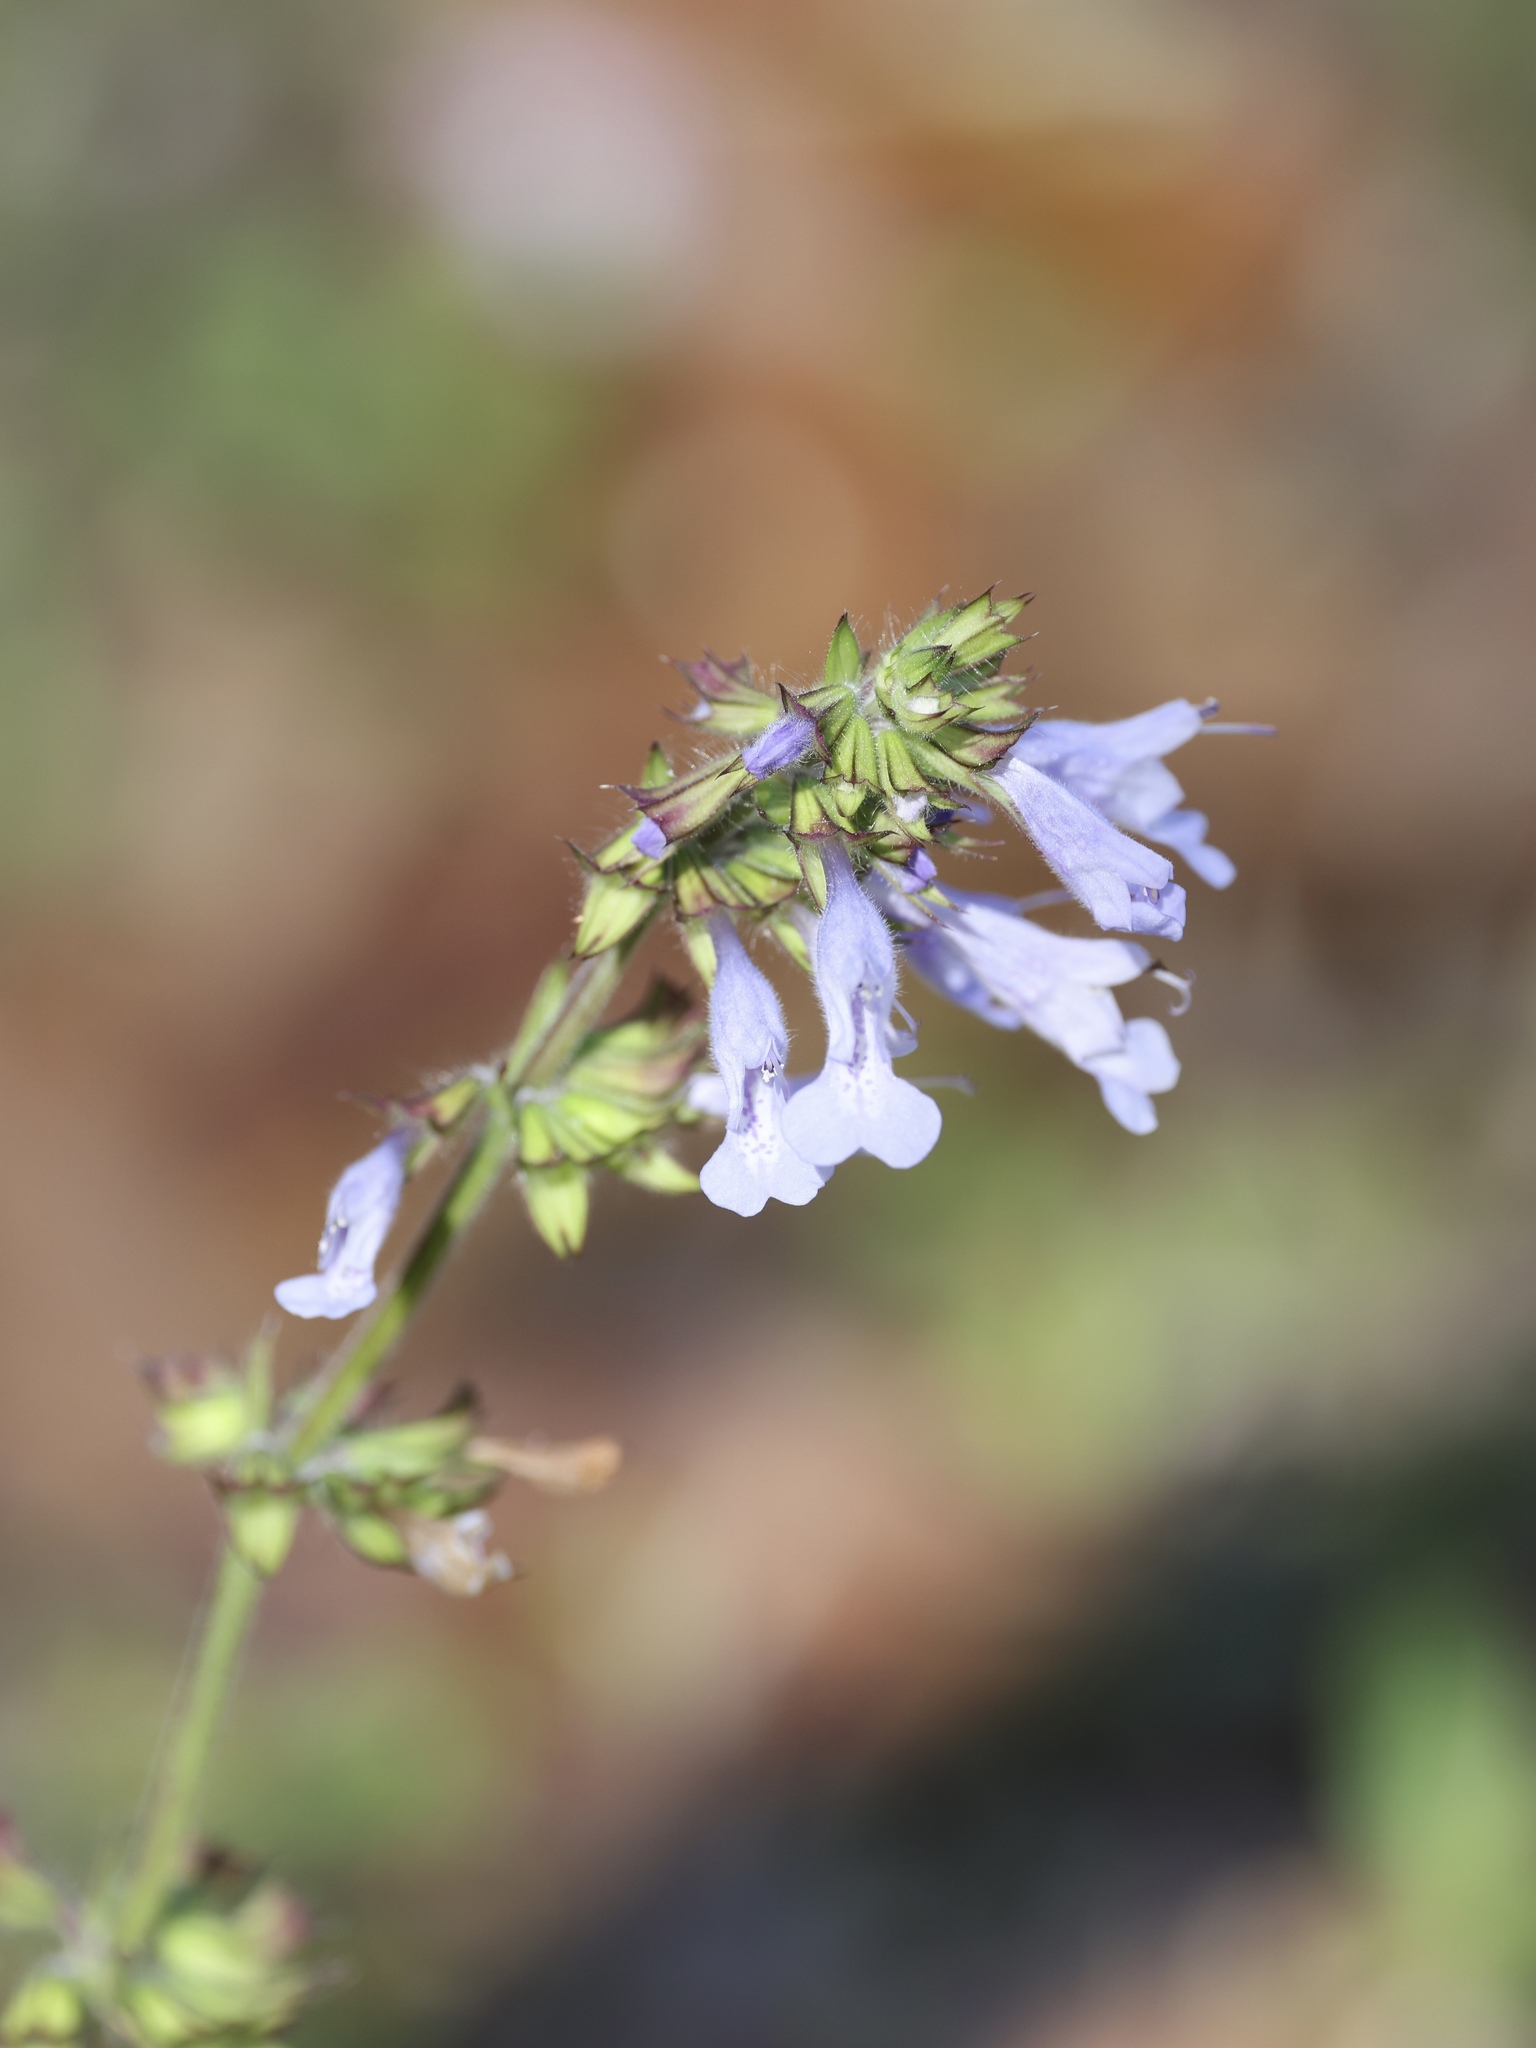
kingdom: Plantae
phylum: Tracheophyta
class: Magnoliopsida
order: Lamiales
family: Lamiaceae
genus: Salvia
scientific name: Salvia lyrata
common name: Cancerweed
